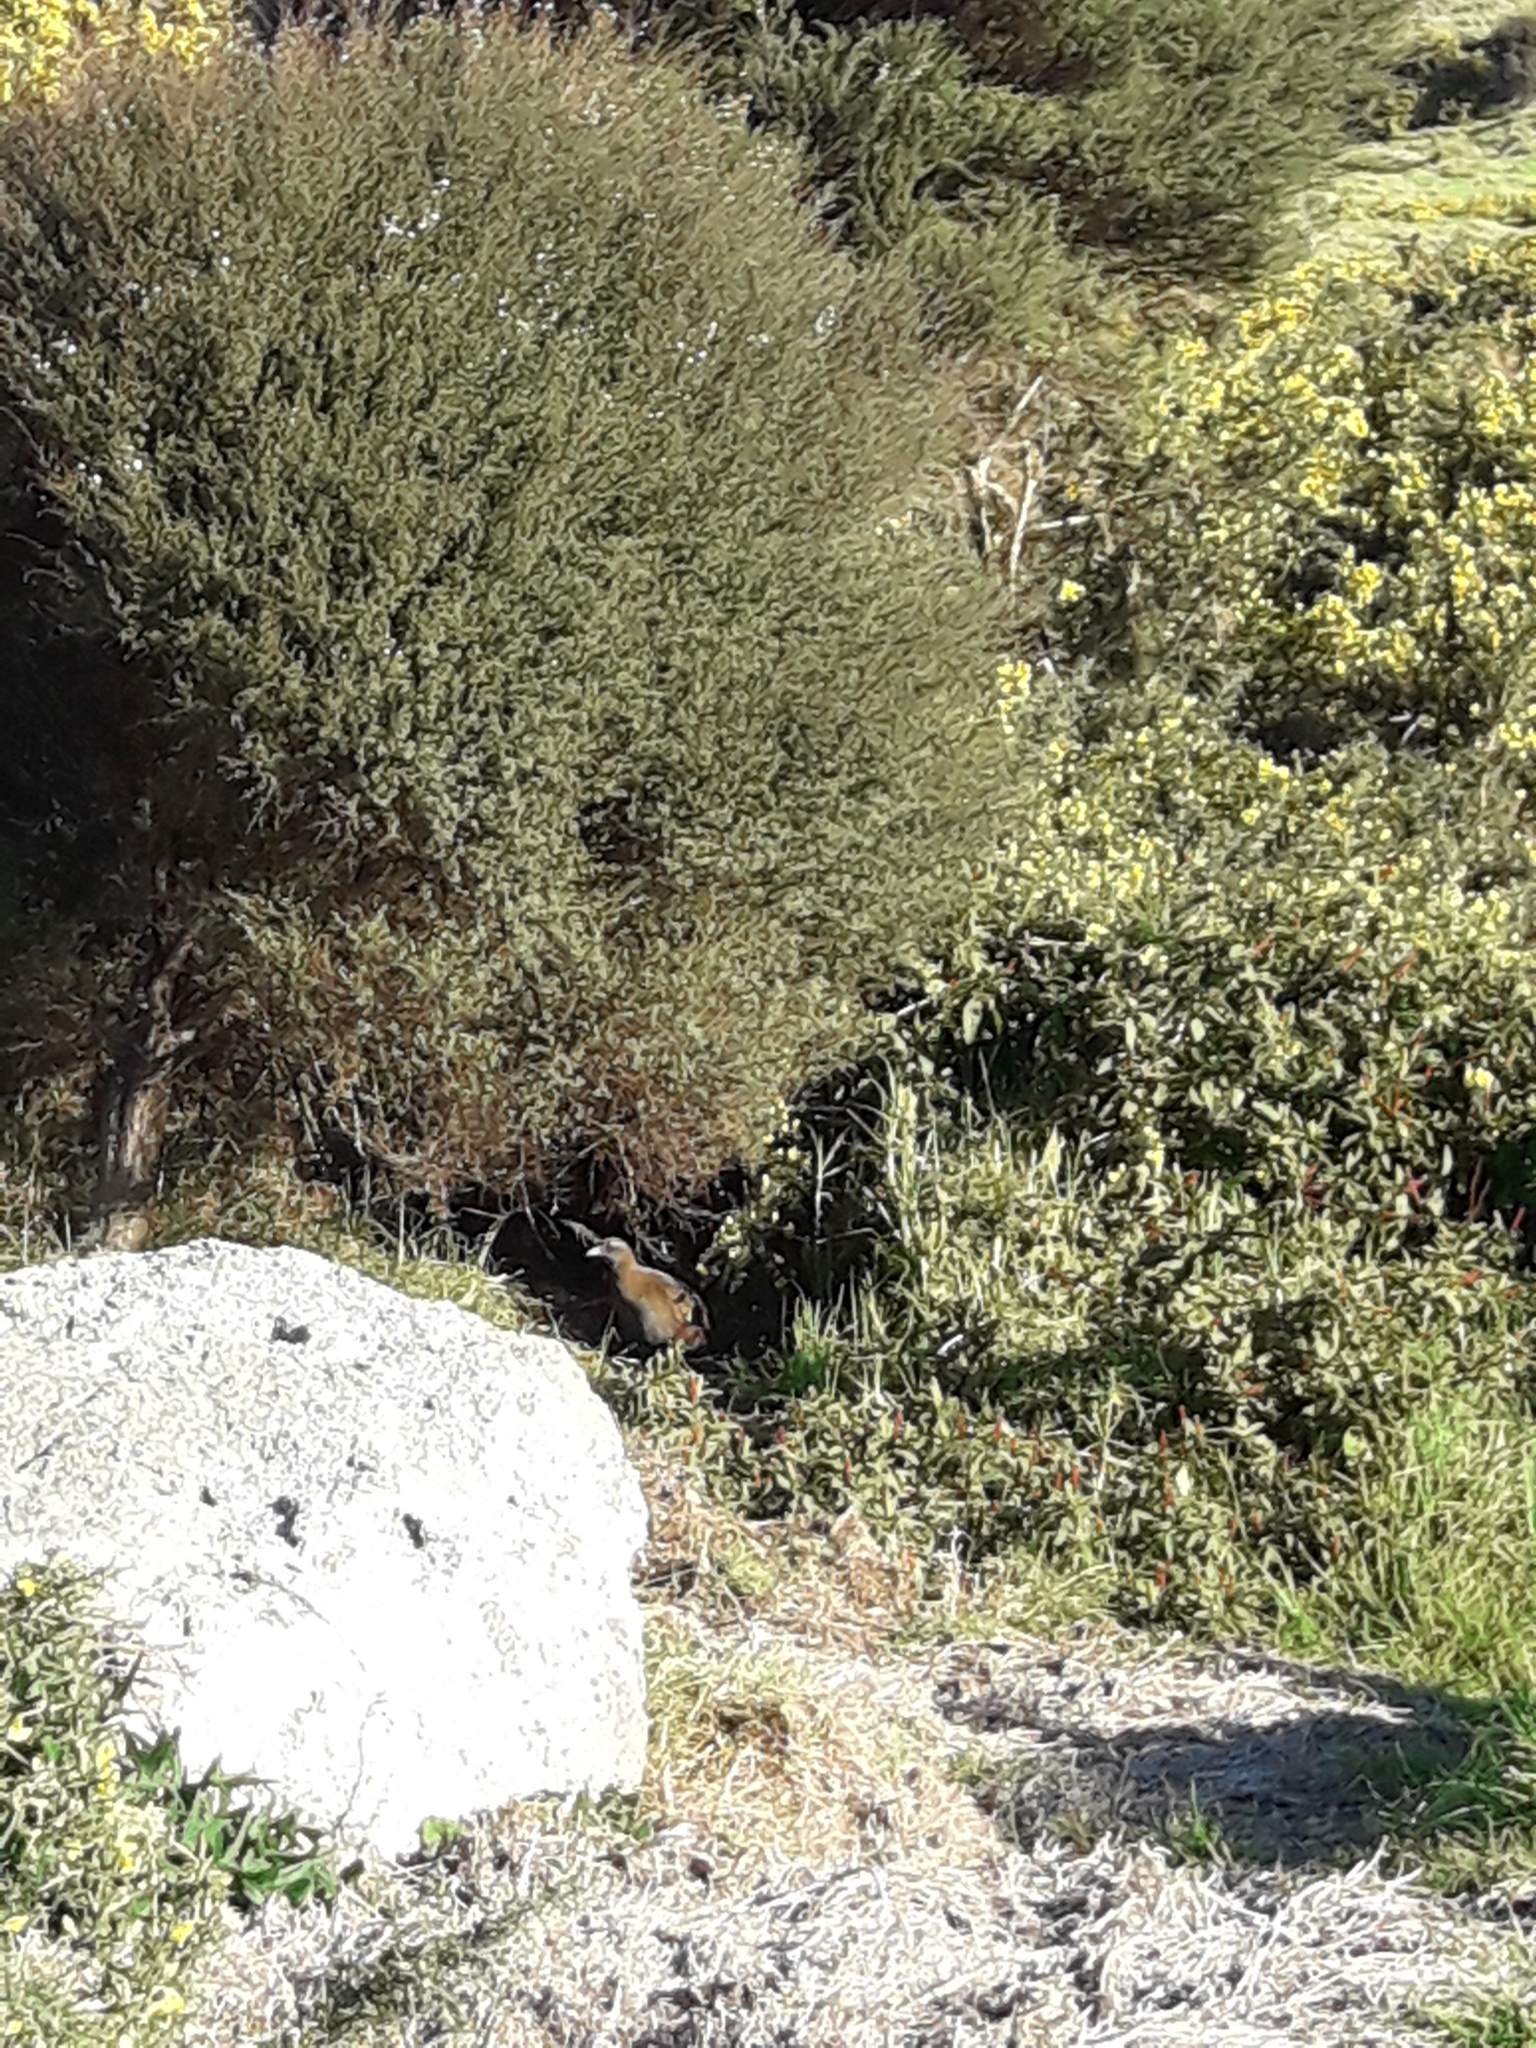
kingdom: Animalia
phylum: Chordata
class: Aves
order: Gruiformes
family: Rallidae
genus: Gallirallus
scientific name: Gallirallus australis
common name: Weka
